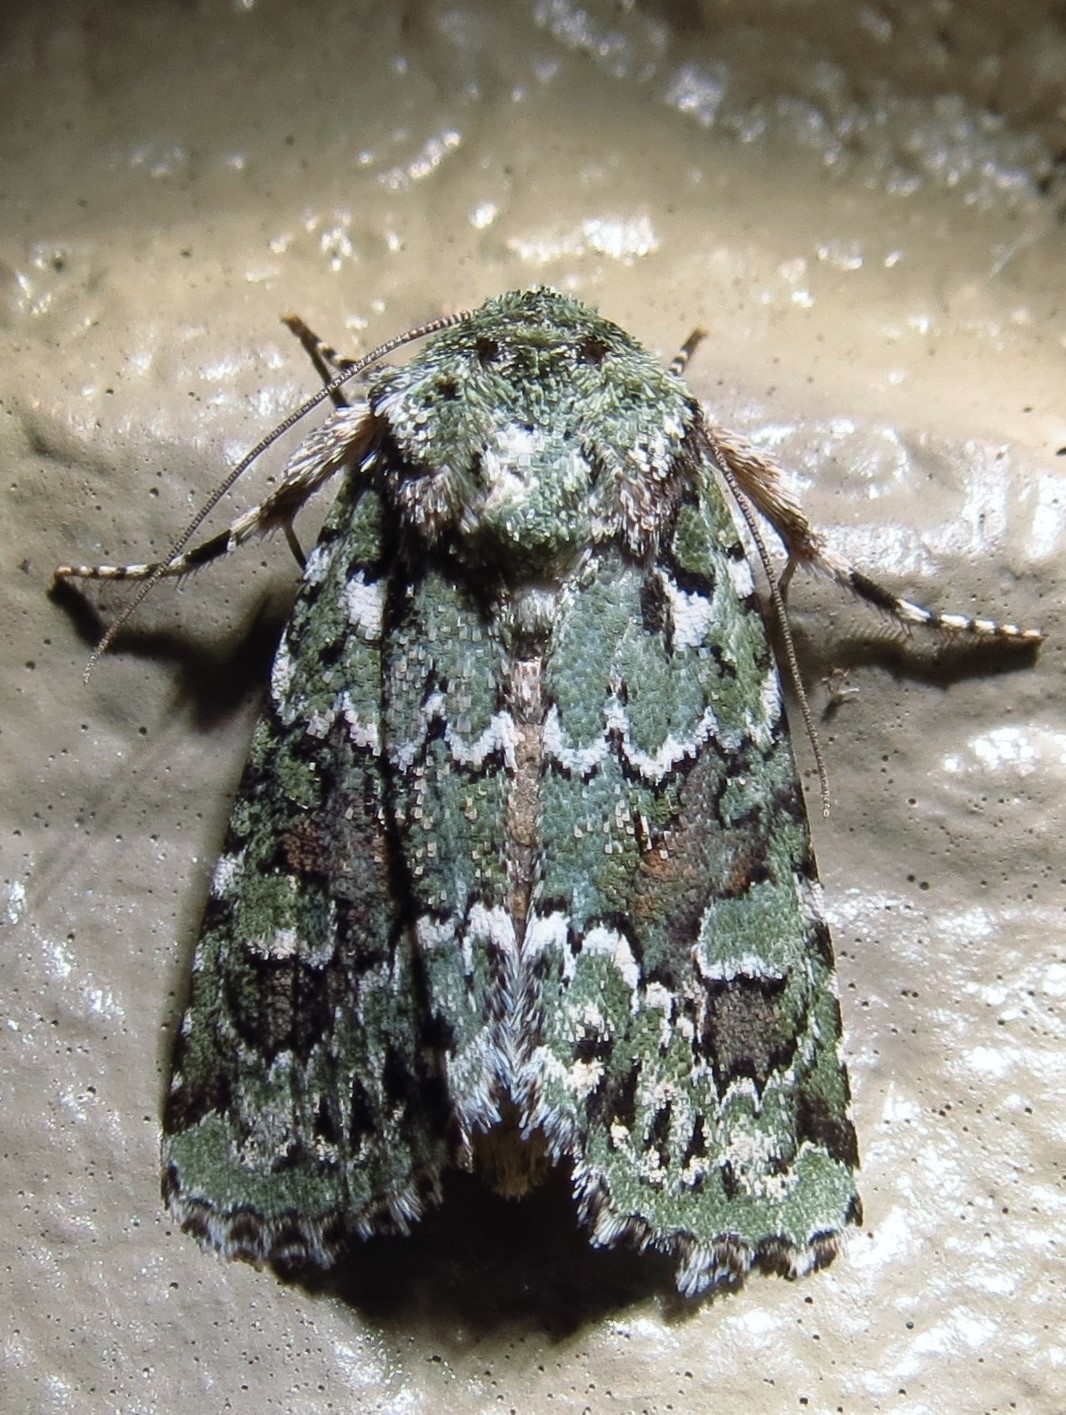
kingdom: Animalia
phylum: Arthropoda
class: Insecta
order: Lepidoptera
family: Noctuidae
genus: Lacinipolia
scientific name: Lacinipolia laudabilis
